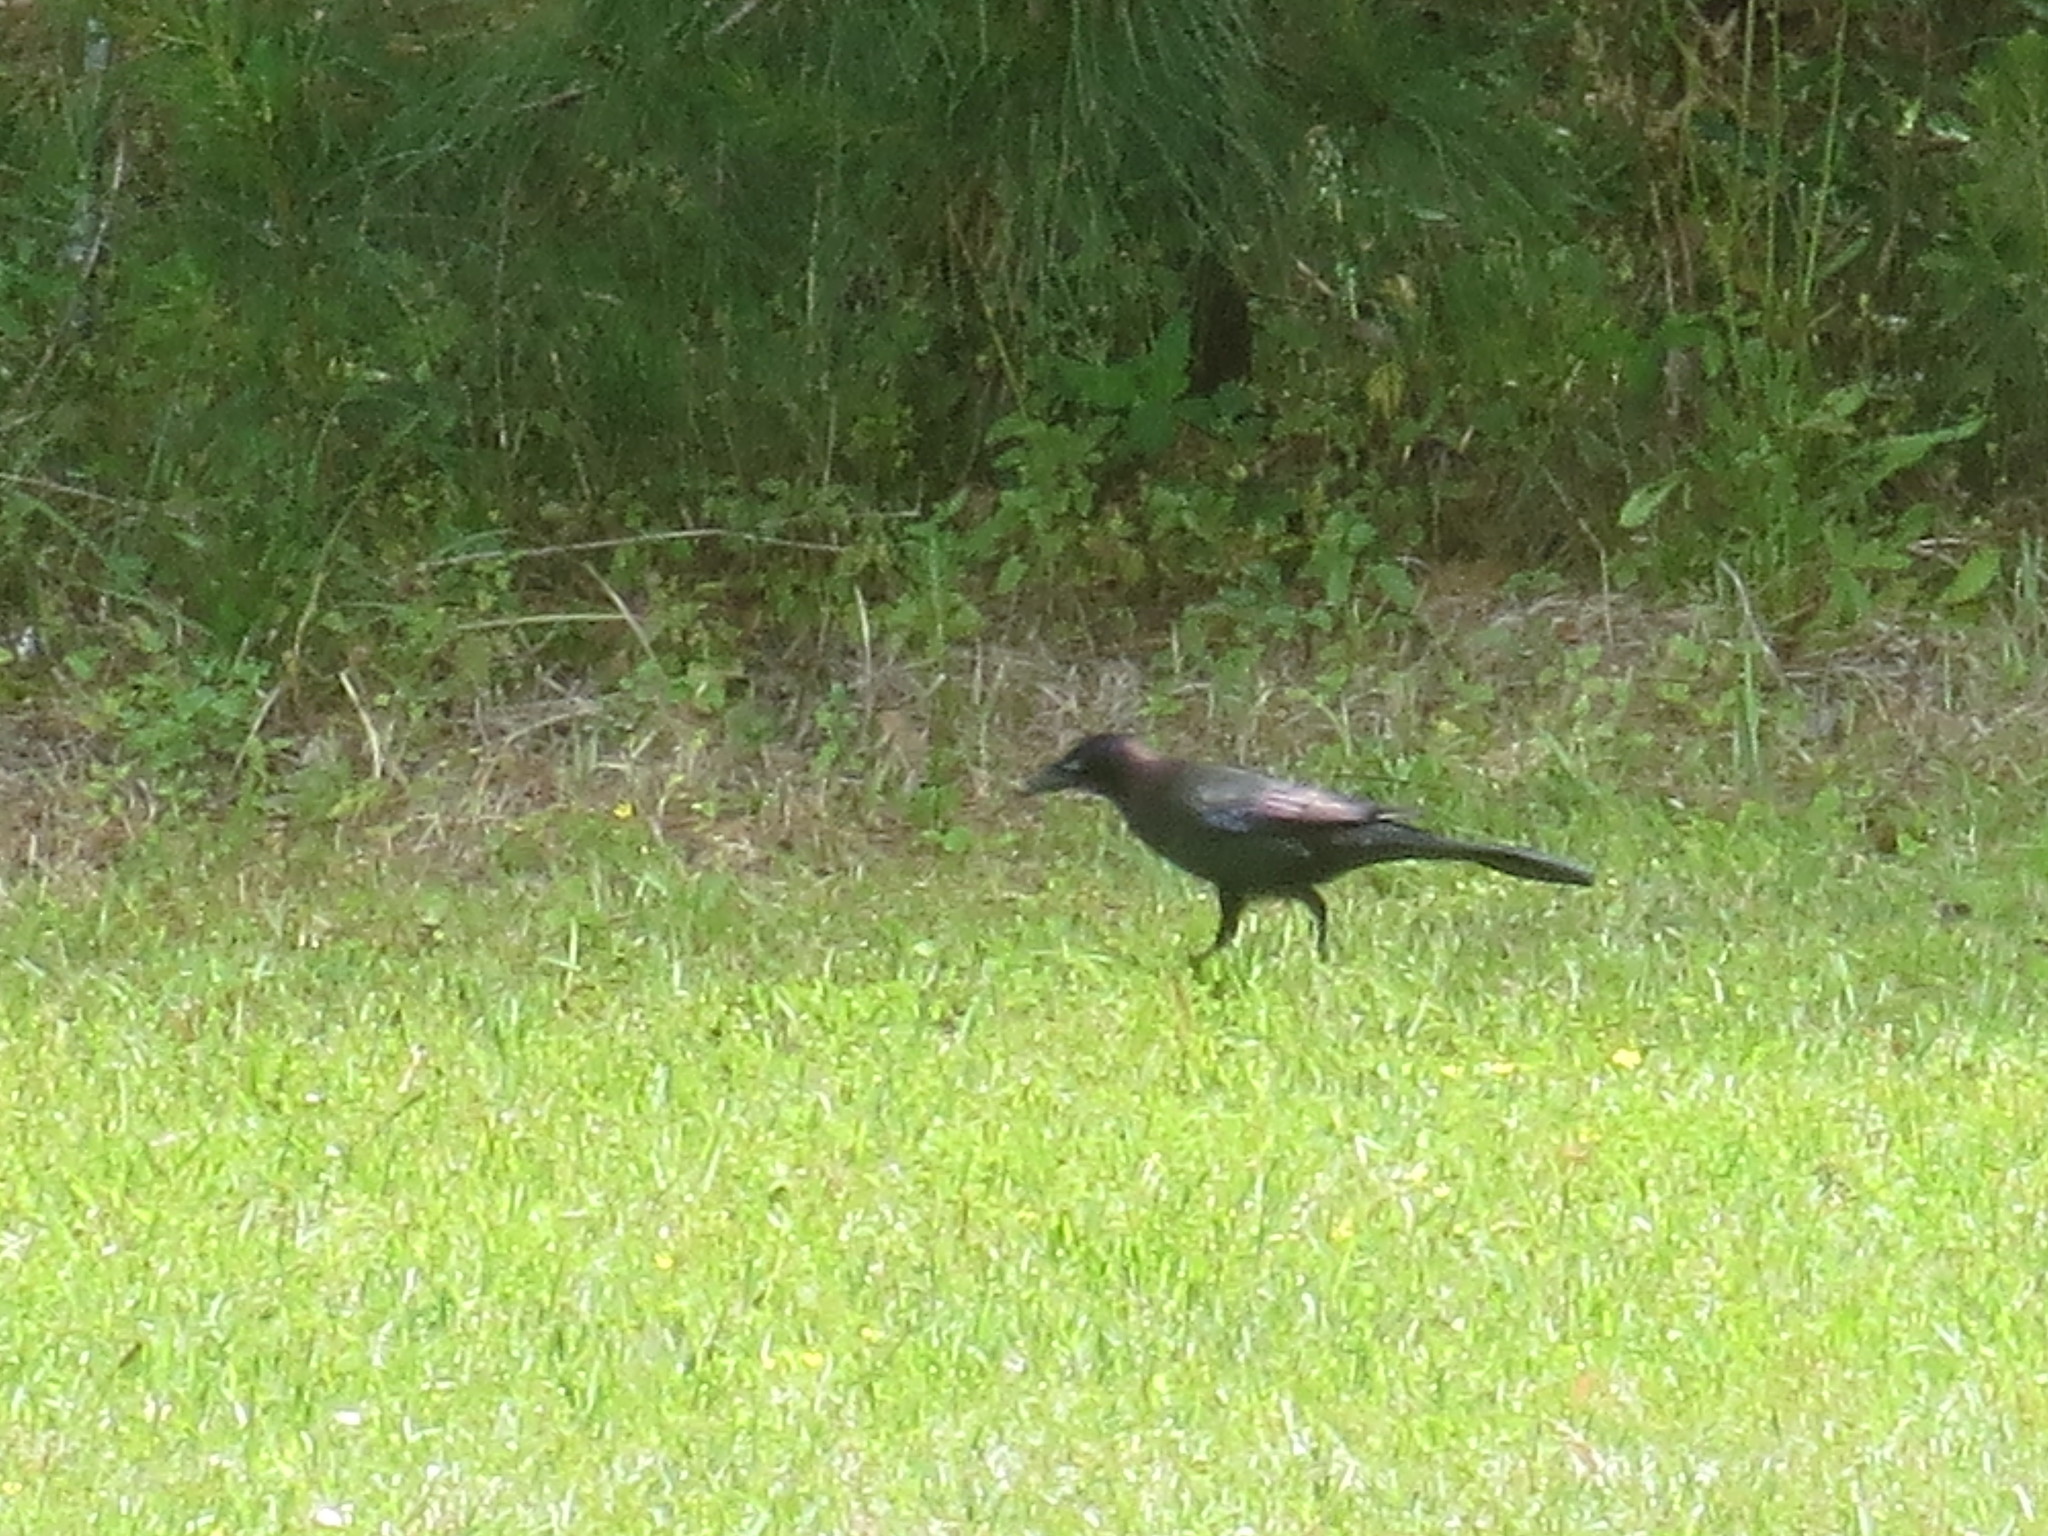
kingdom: Animalia
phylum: Chordata
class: Aves
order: Passeriformes
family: Icteridae
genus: Quiscalus
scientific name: Quiscalus quiscula
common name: Common grackle
